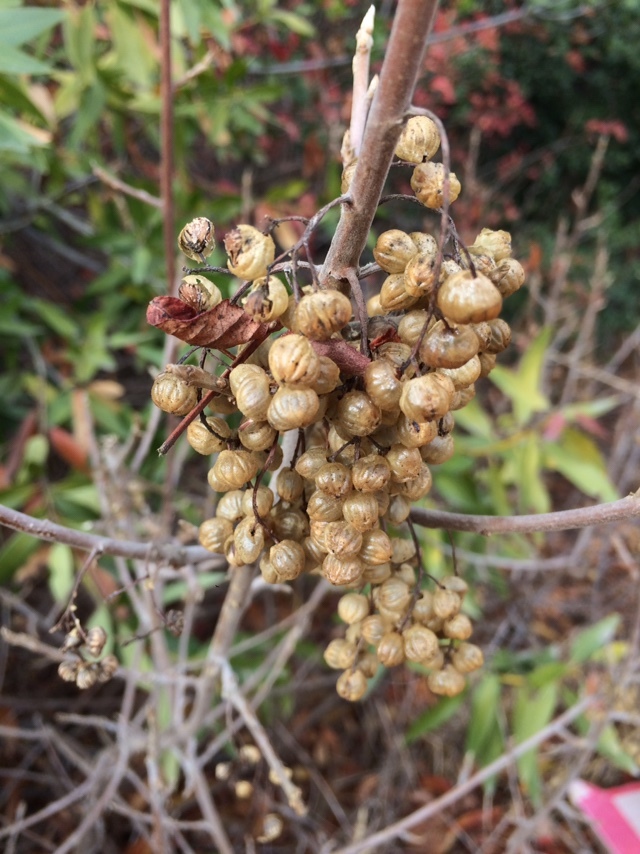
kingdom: Plantae
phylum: Tracheophyta
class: Magnoliopsida
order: Sapindales
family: Anacardiaceae
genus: Toxicodendron
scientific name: Toxicodendron diversilobum
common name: Pacific poison-oak
